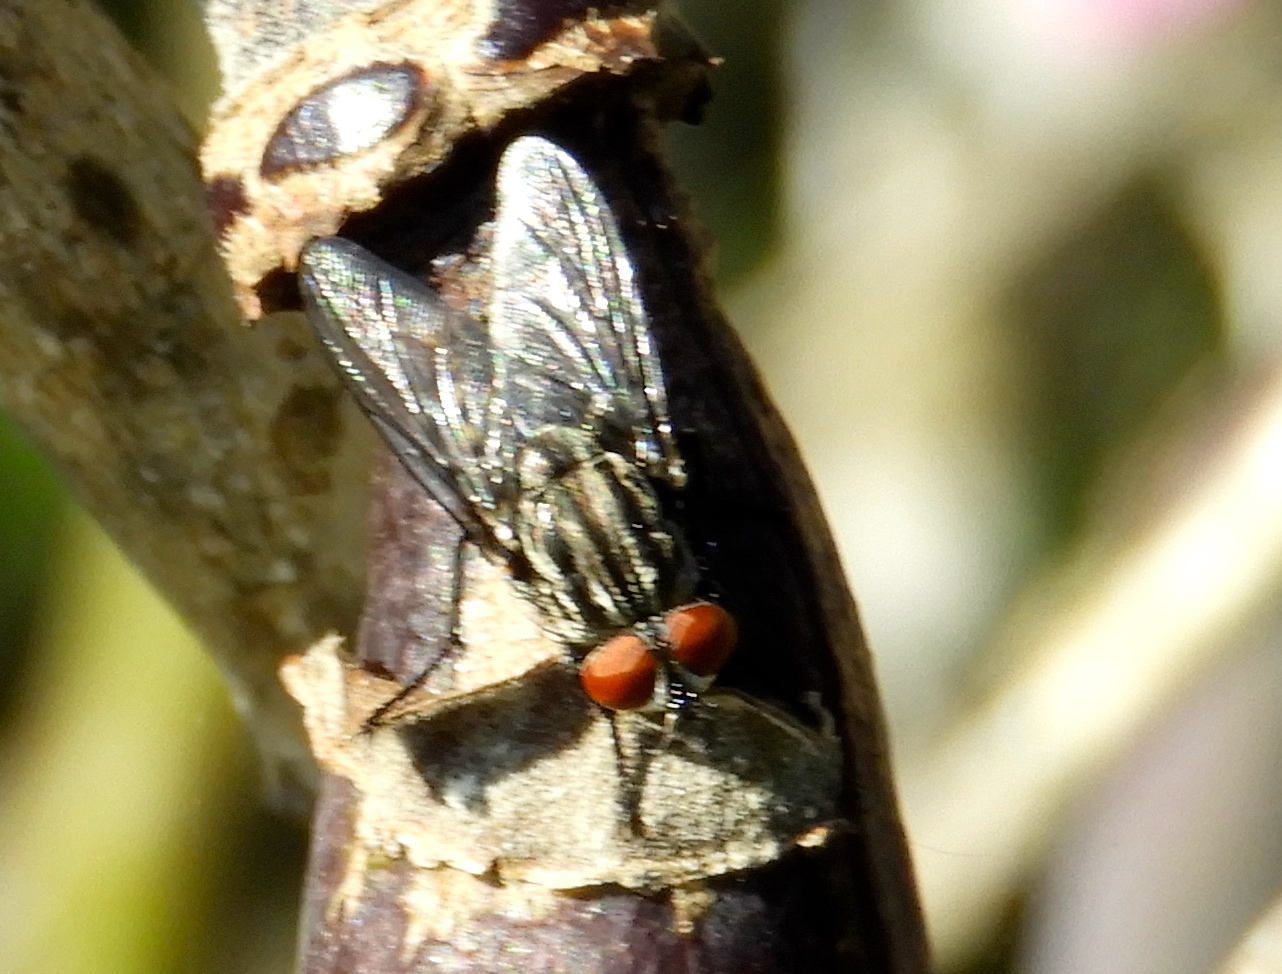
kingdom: Animalia
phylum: Arthropoda
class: Insecta
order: Diptera
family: Sarcophagidae
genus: Sarcophaga
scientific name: Sarcophaga
